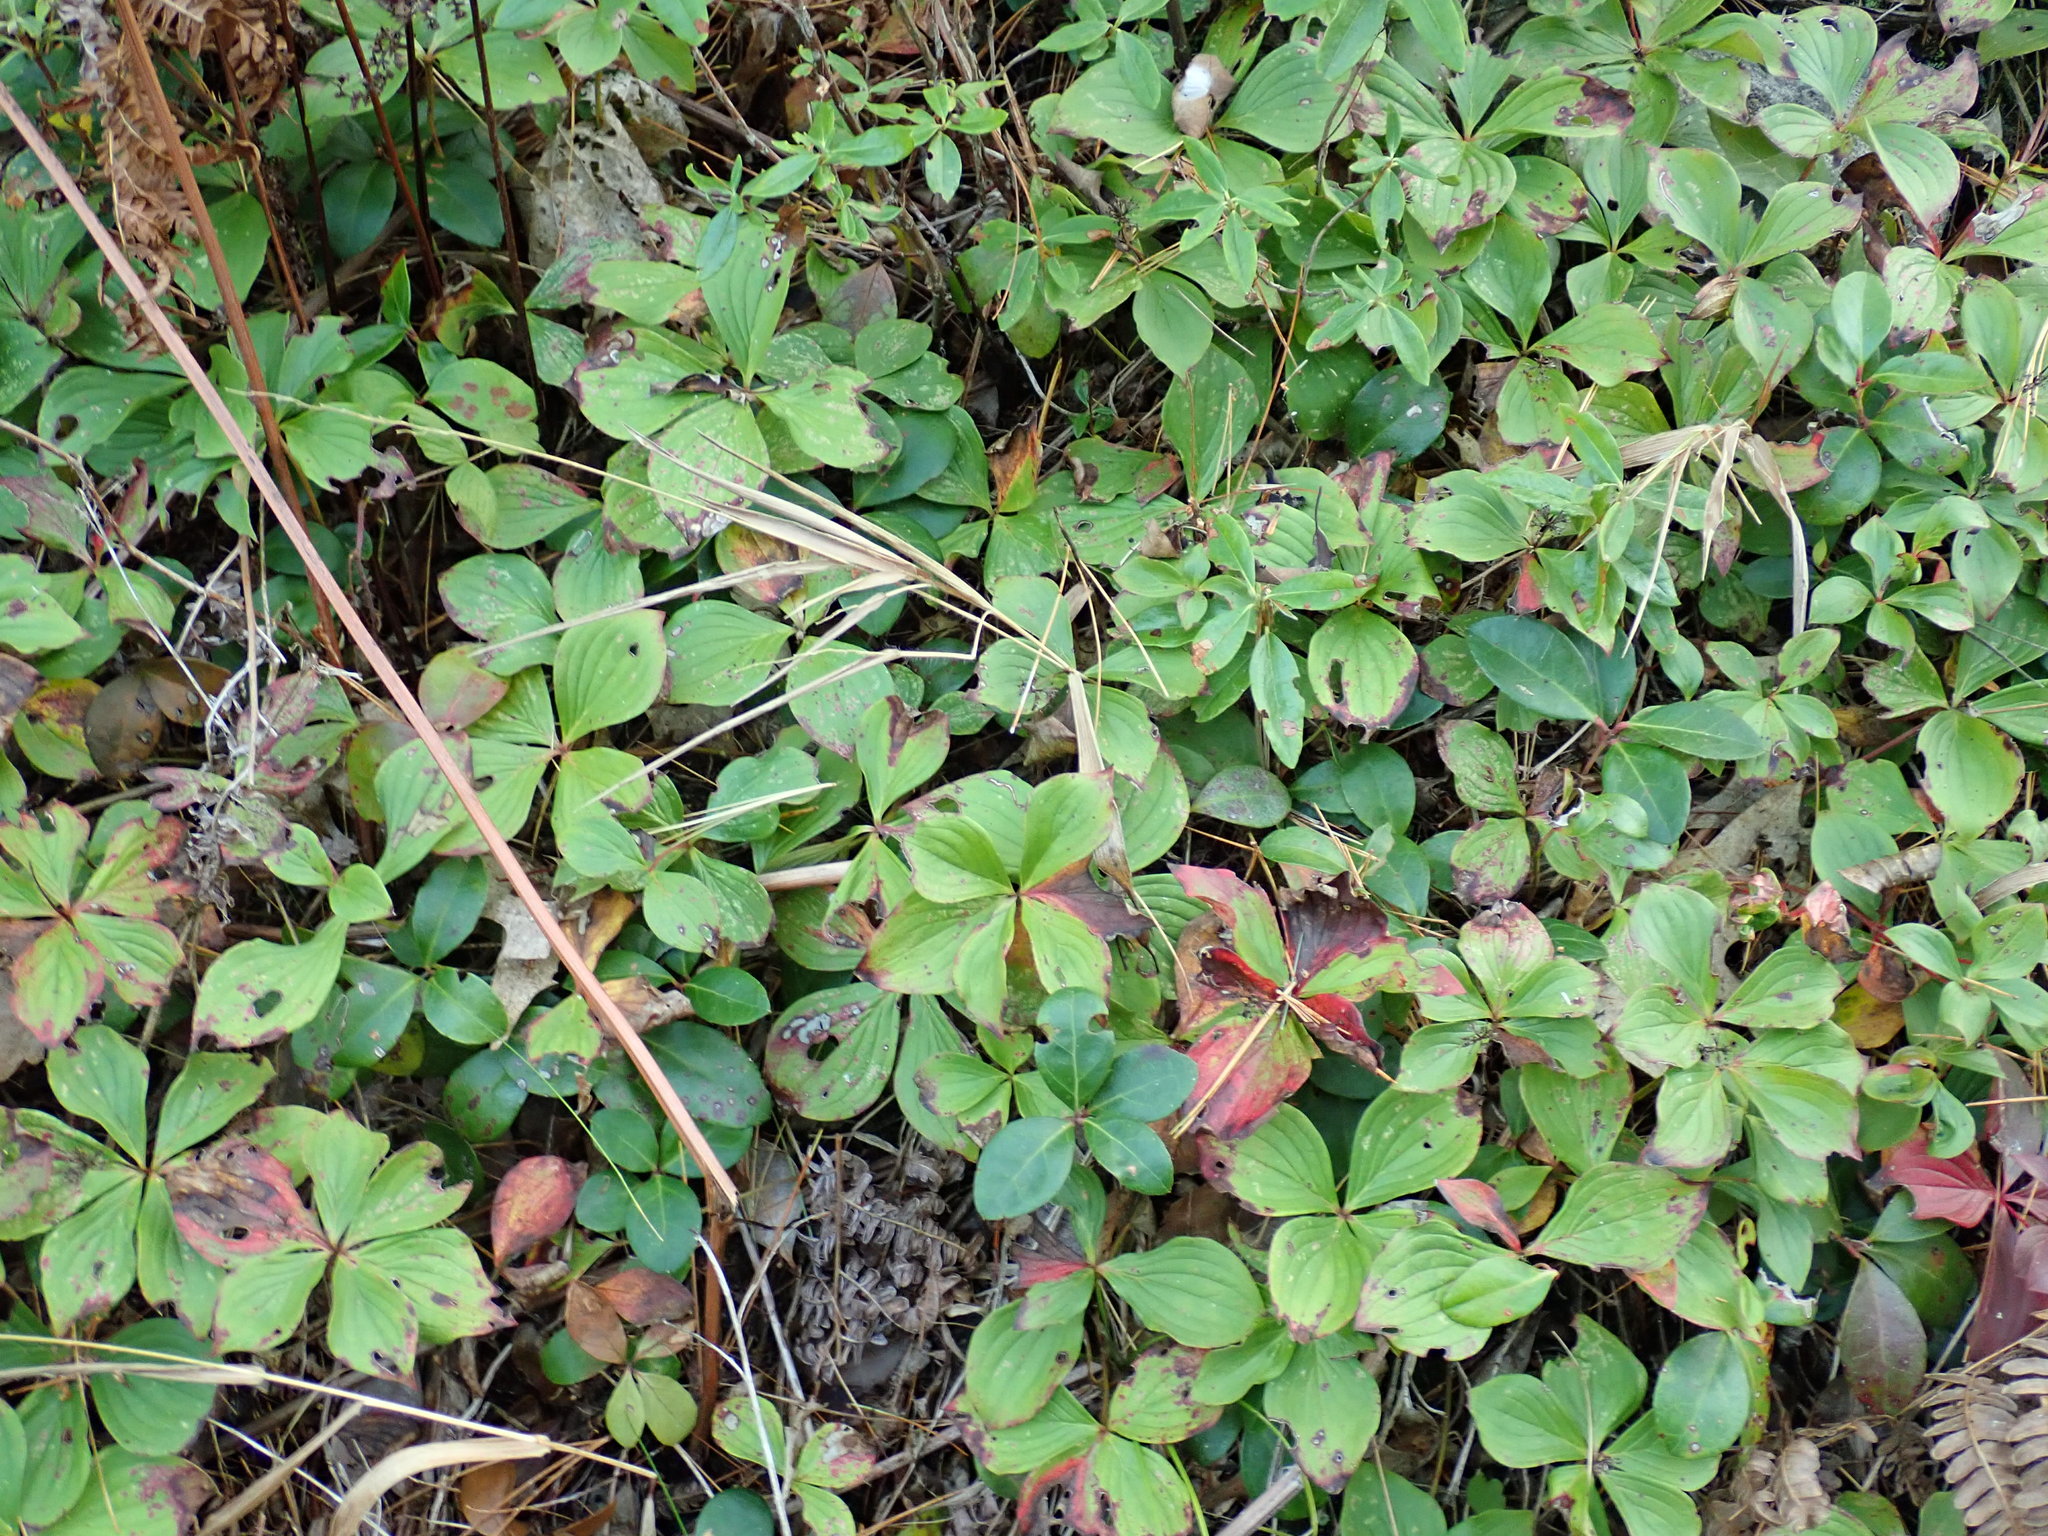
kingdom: Plantae
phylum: Tracheophyta
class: Magnoliopsida
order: Cornales
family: Cornaceae
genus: Cornus
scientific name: Cornus canadensis
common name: Creeping dogwood
